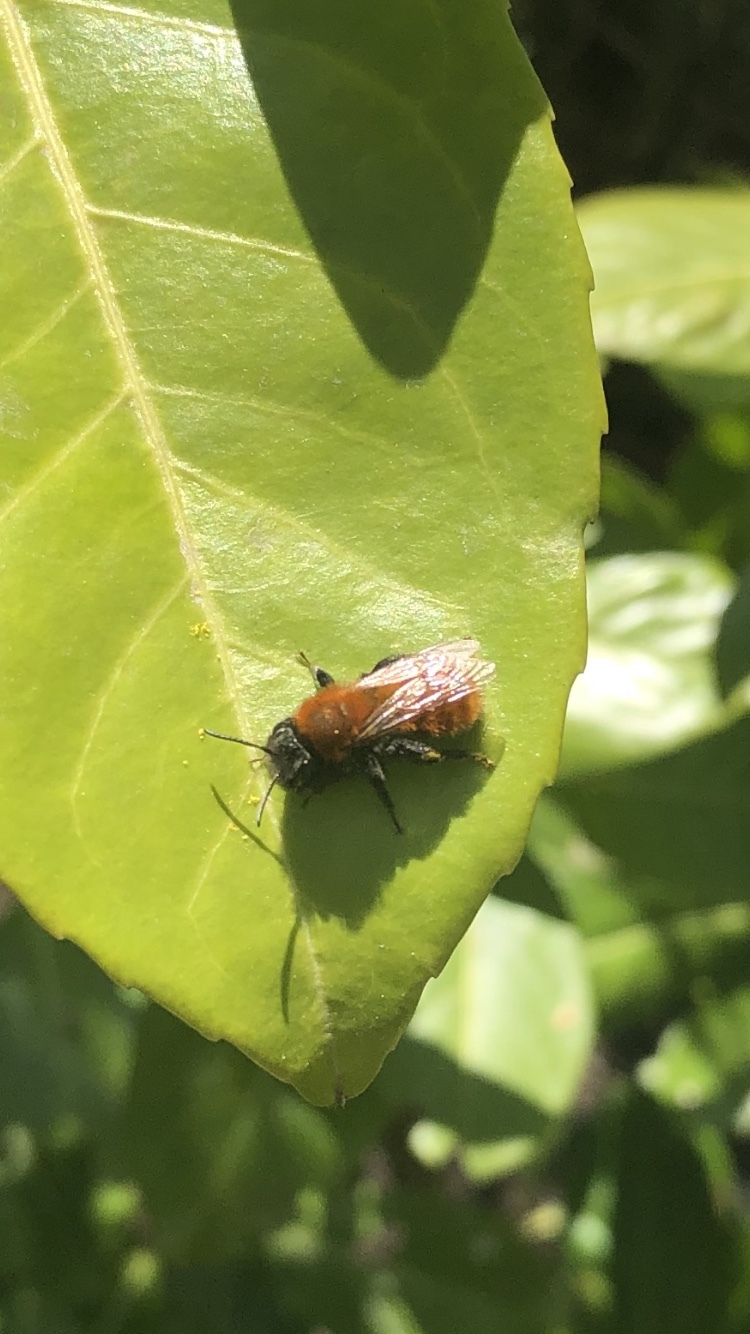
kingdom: Animalia
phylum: Arthropoda
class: Insecta
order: Hymenoptera
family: Andrenidae
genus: Andrena
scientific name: Andrena fulva
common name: Tawny mining bee
